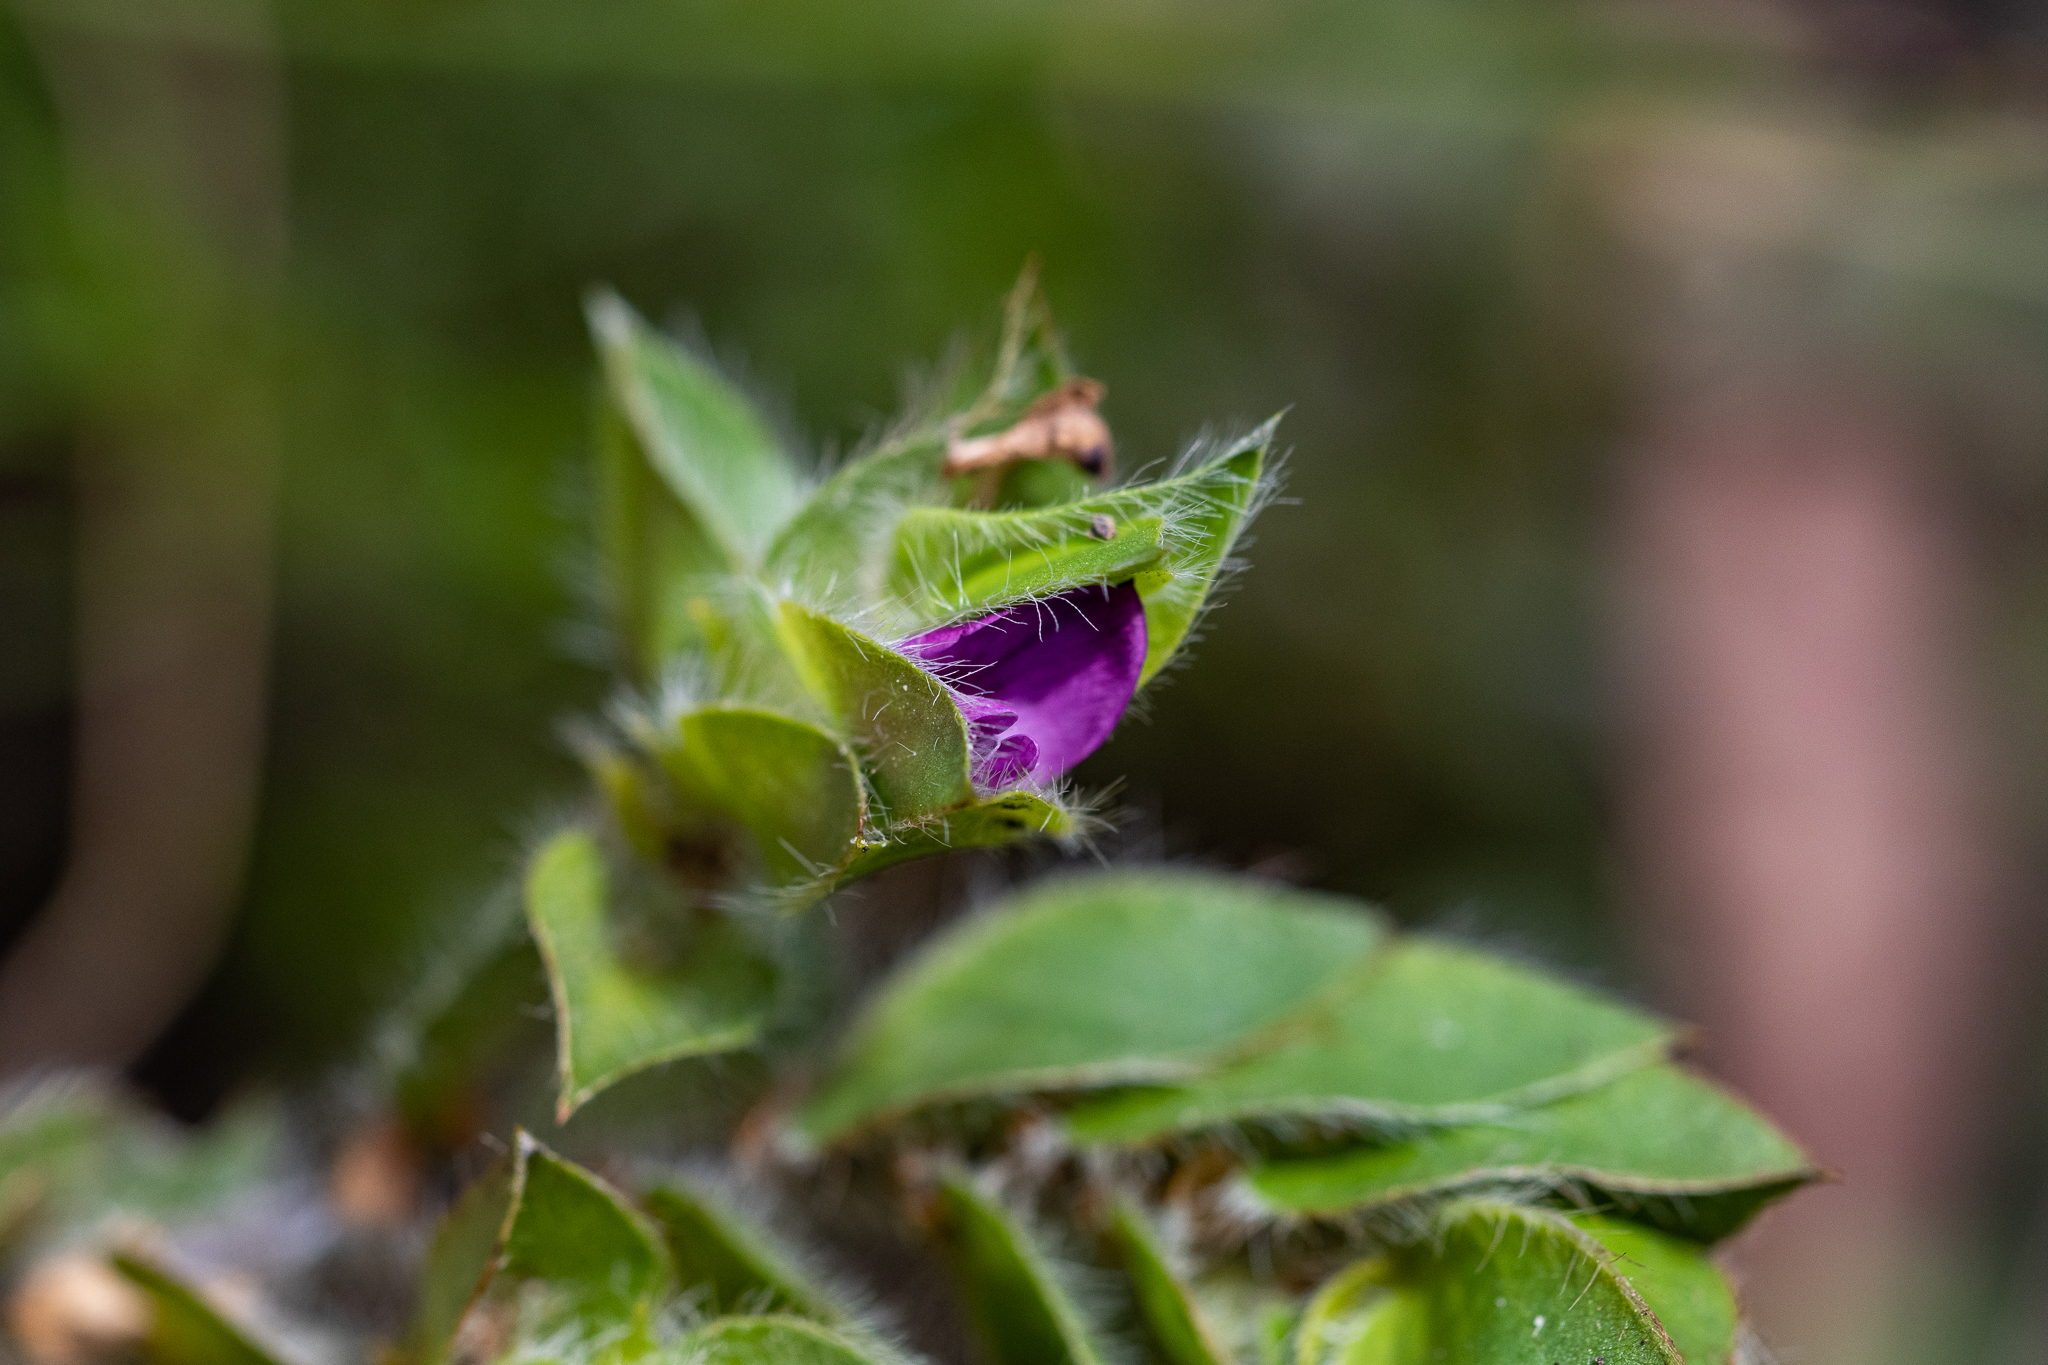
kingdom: Plantae
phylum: Tracheophyta
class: Magnoliopsida
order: Fabales
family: Fabaceae
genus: Psoralea
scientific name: Psoralea imbricata
